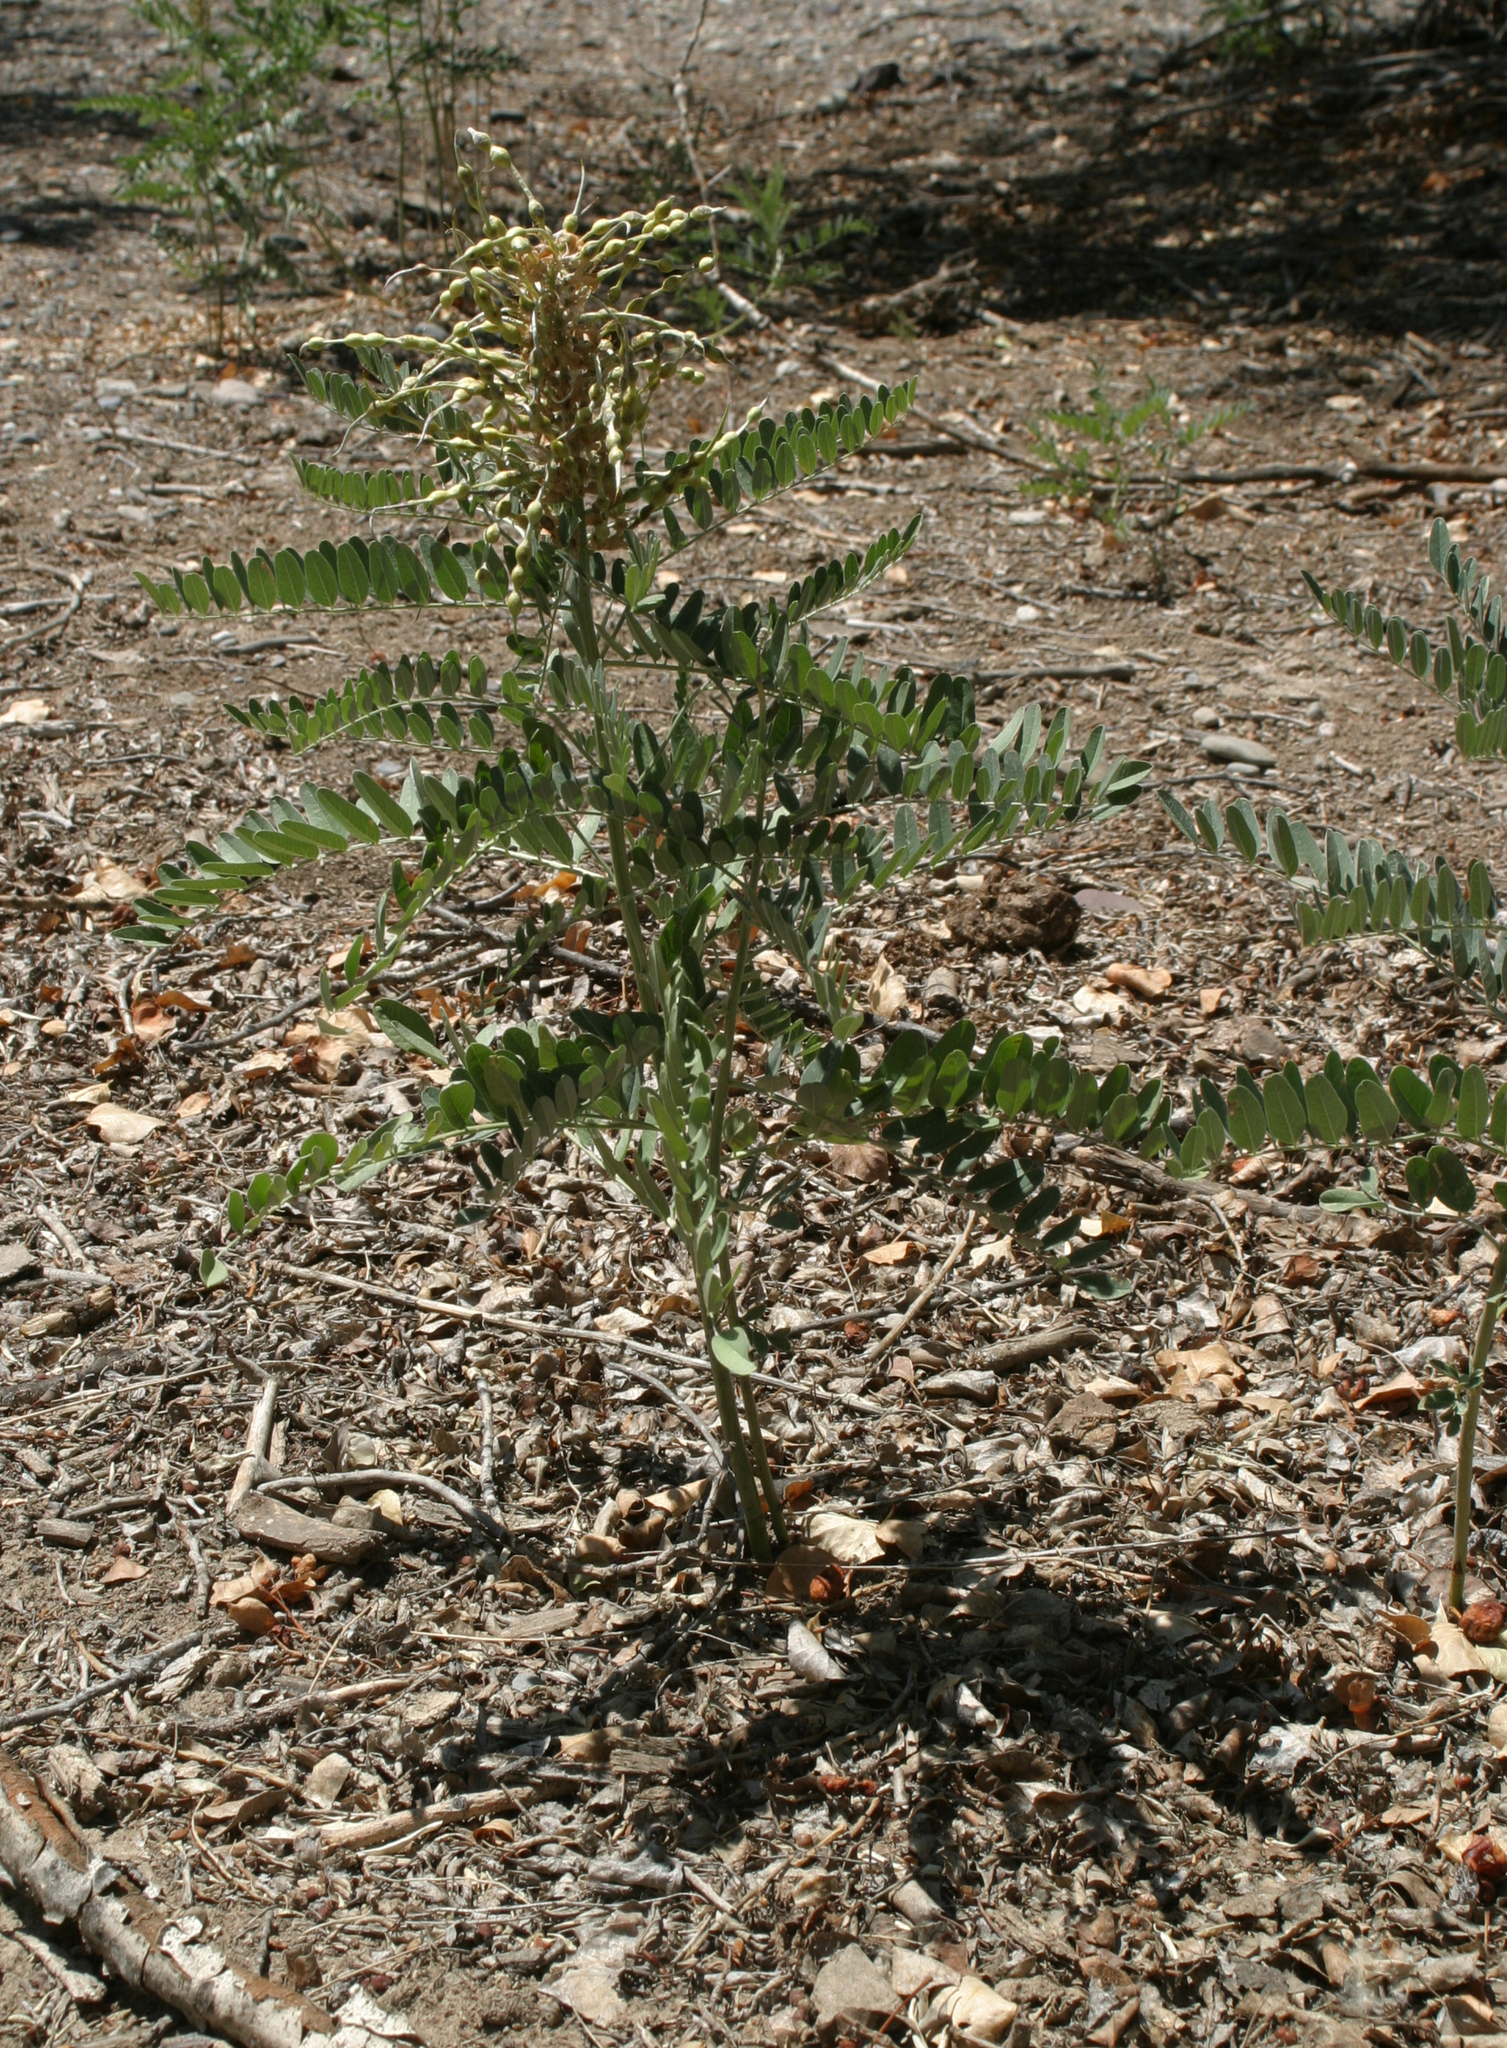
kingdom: Plantae
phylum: Tracheophyta
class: Magnoliopsida
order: Fabales
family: Fabaceae
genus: Sophora
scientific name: Sophora alopecuroides
